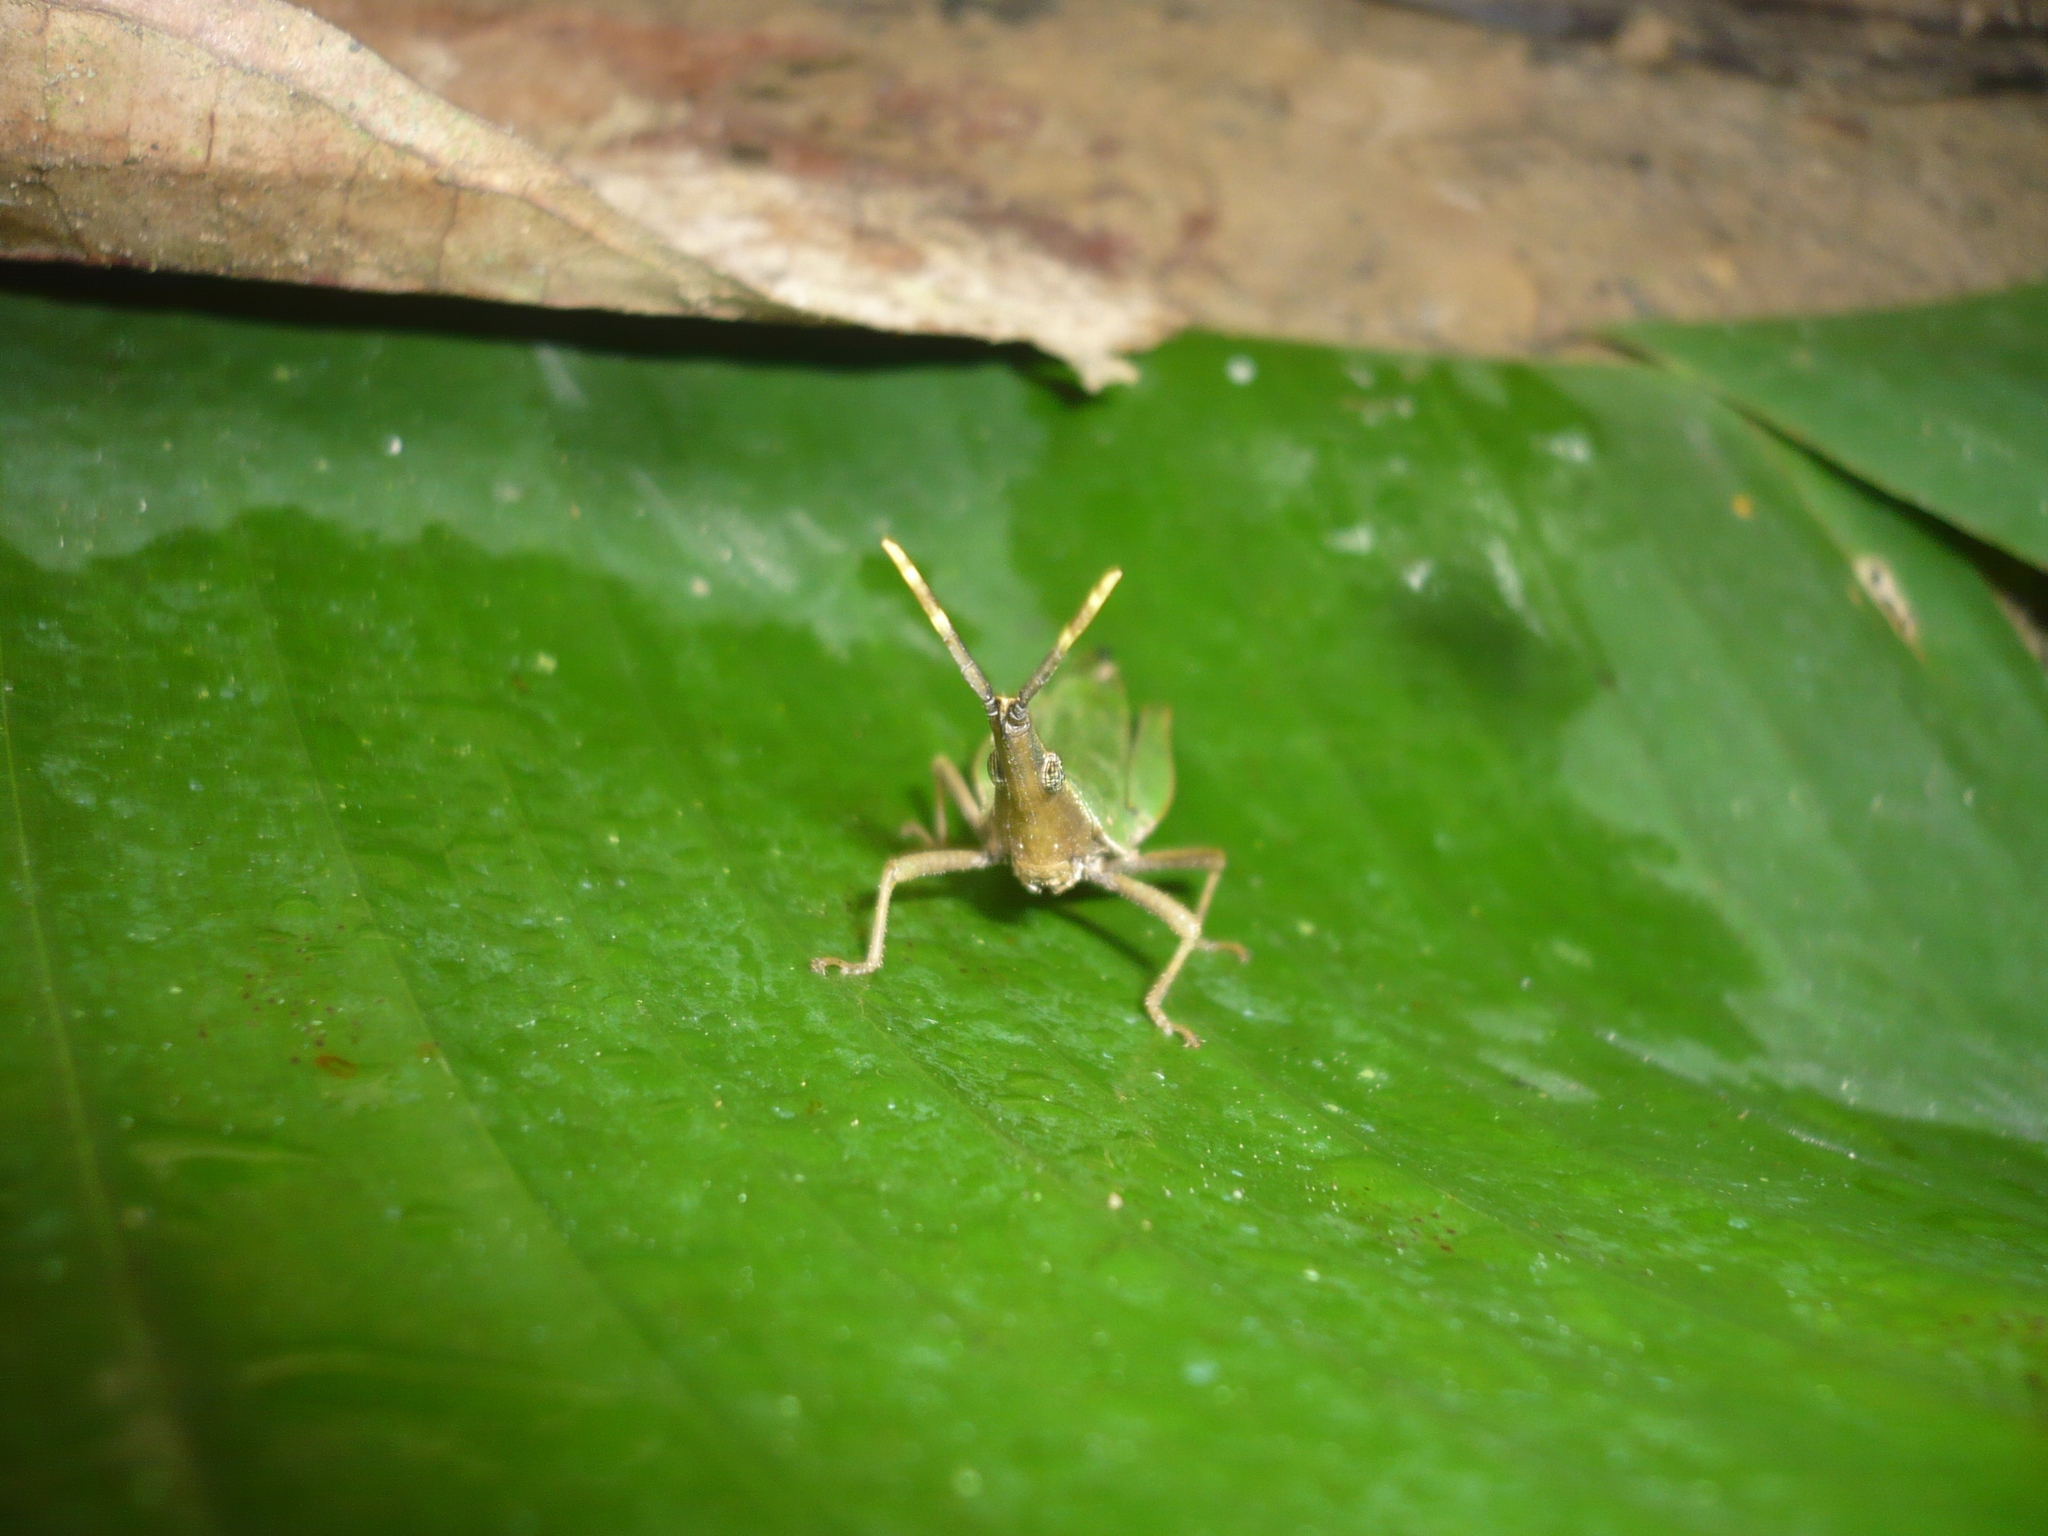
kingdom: Animalia
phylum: Arthropoda
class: Insecta
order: Orthoptera
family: Pyrgomorphidae
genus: Omura
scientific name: Omura congrua
